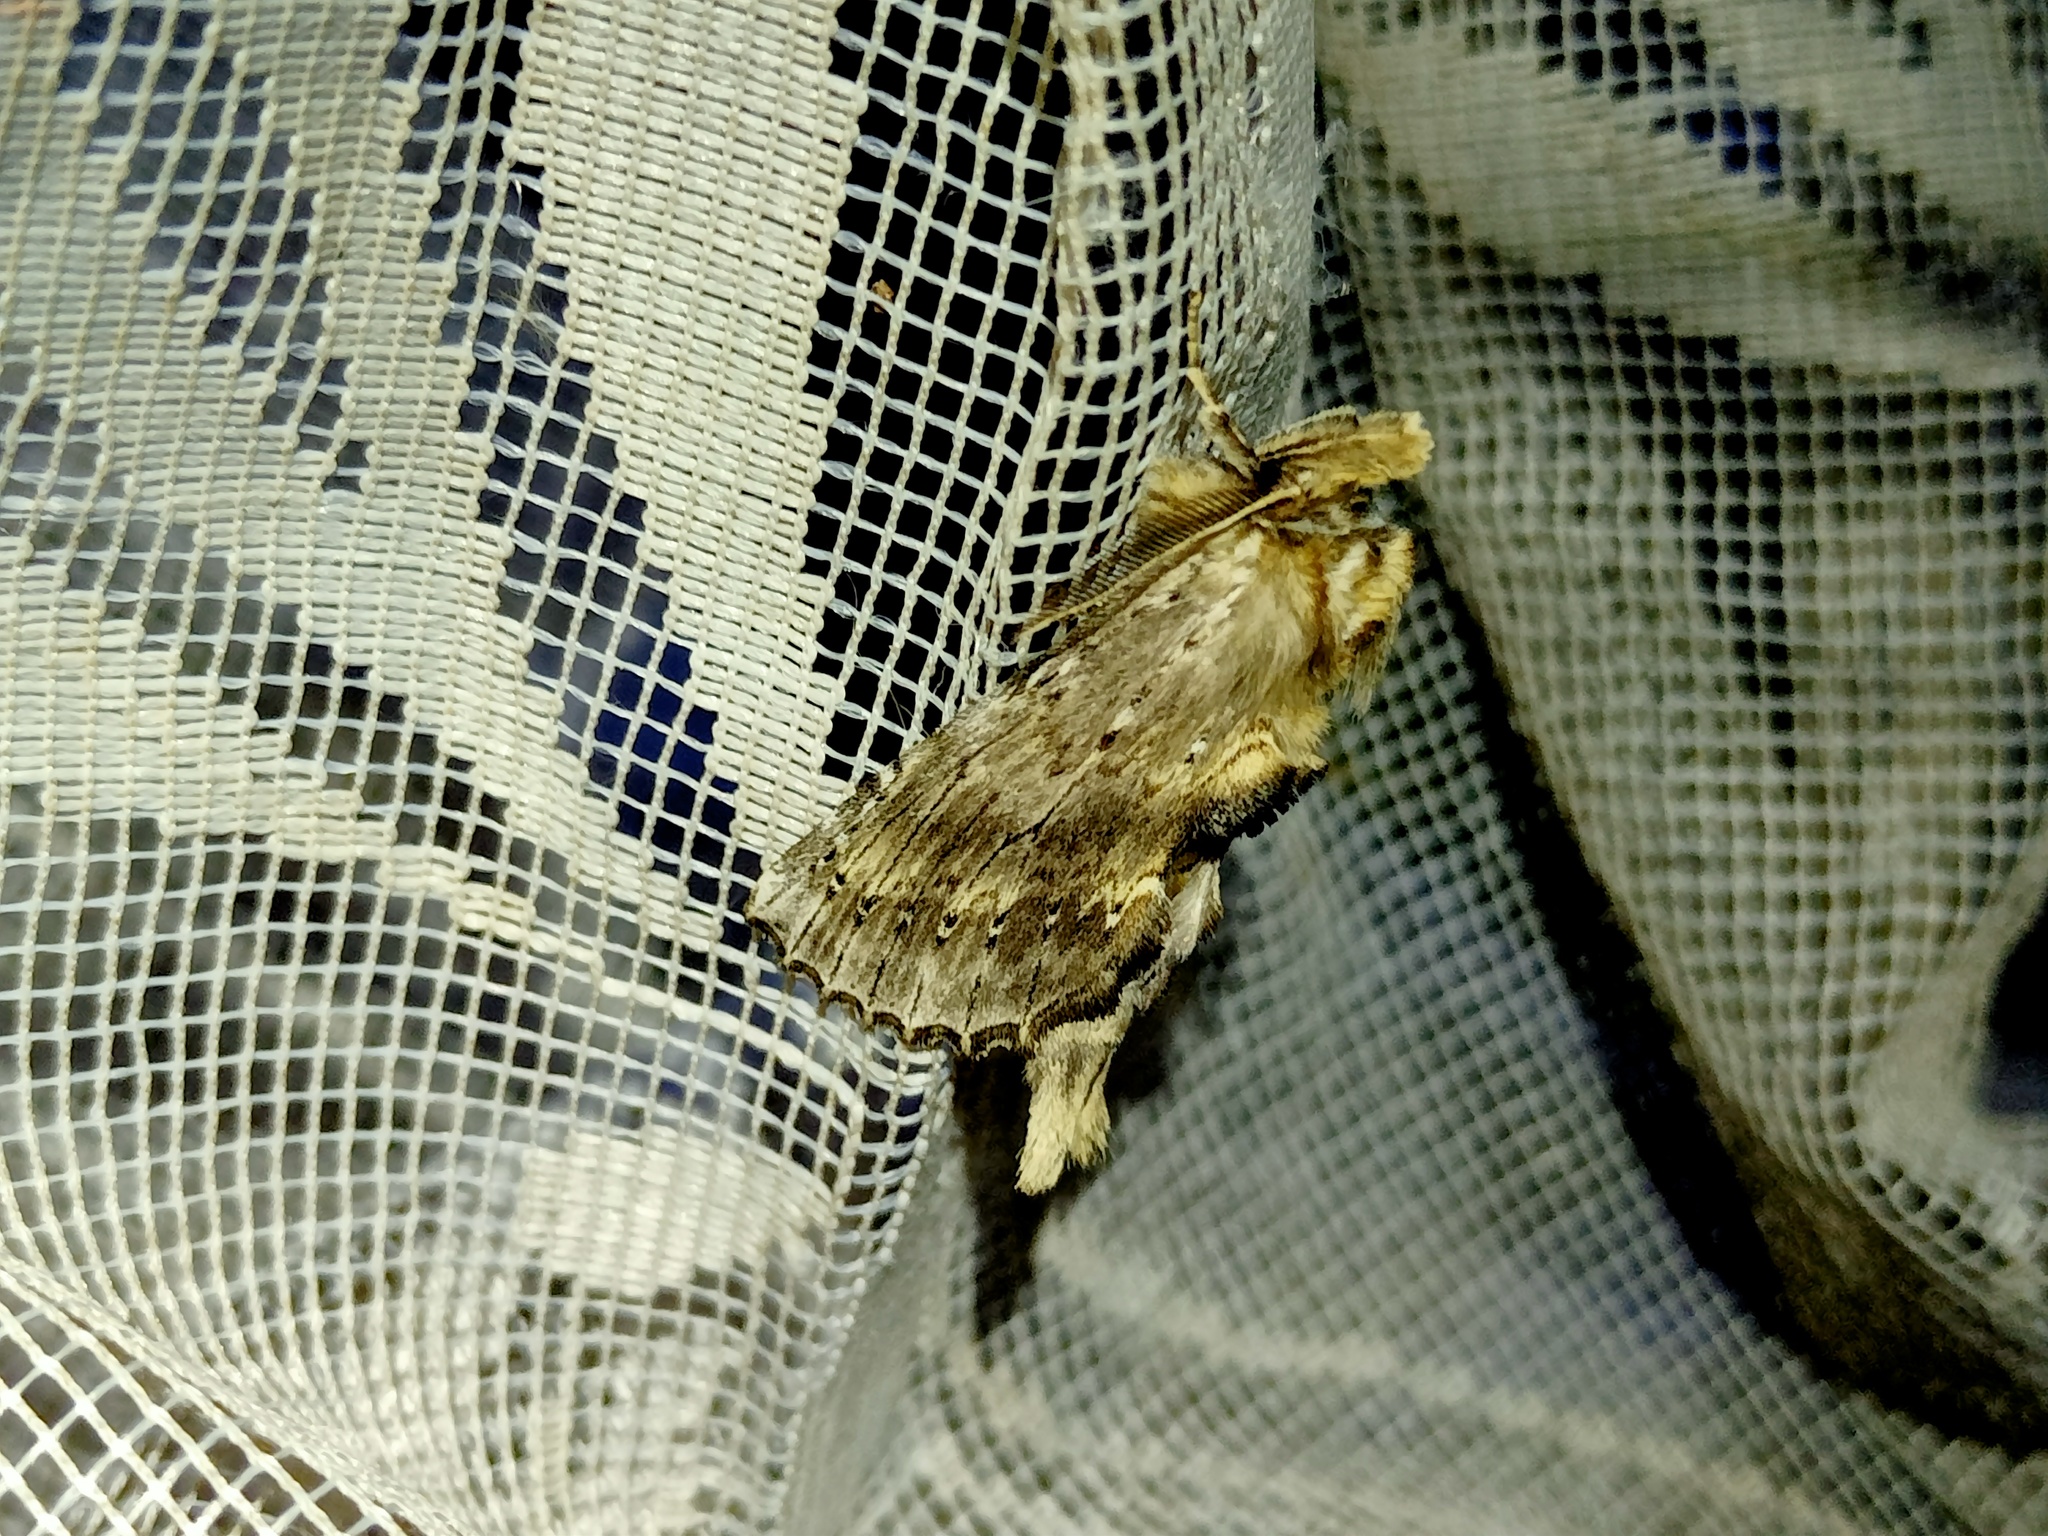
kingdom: Animalia
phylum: Arthropoda
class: Insecta
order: Lepidoptera
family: Notodontidae
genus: Pterostoma
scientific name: Pterostoma palpina
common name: Pale prominent
